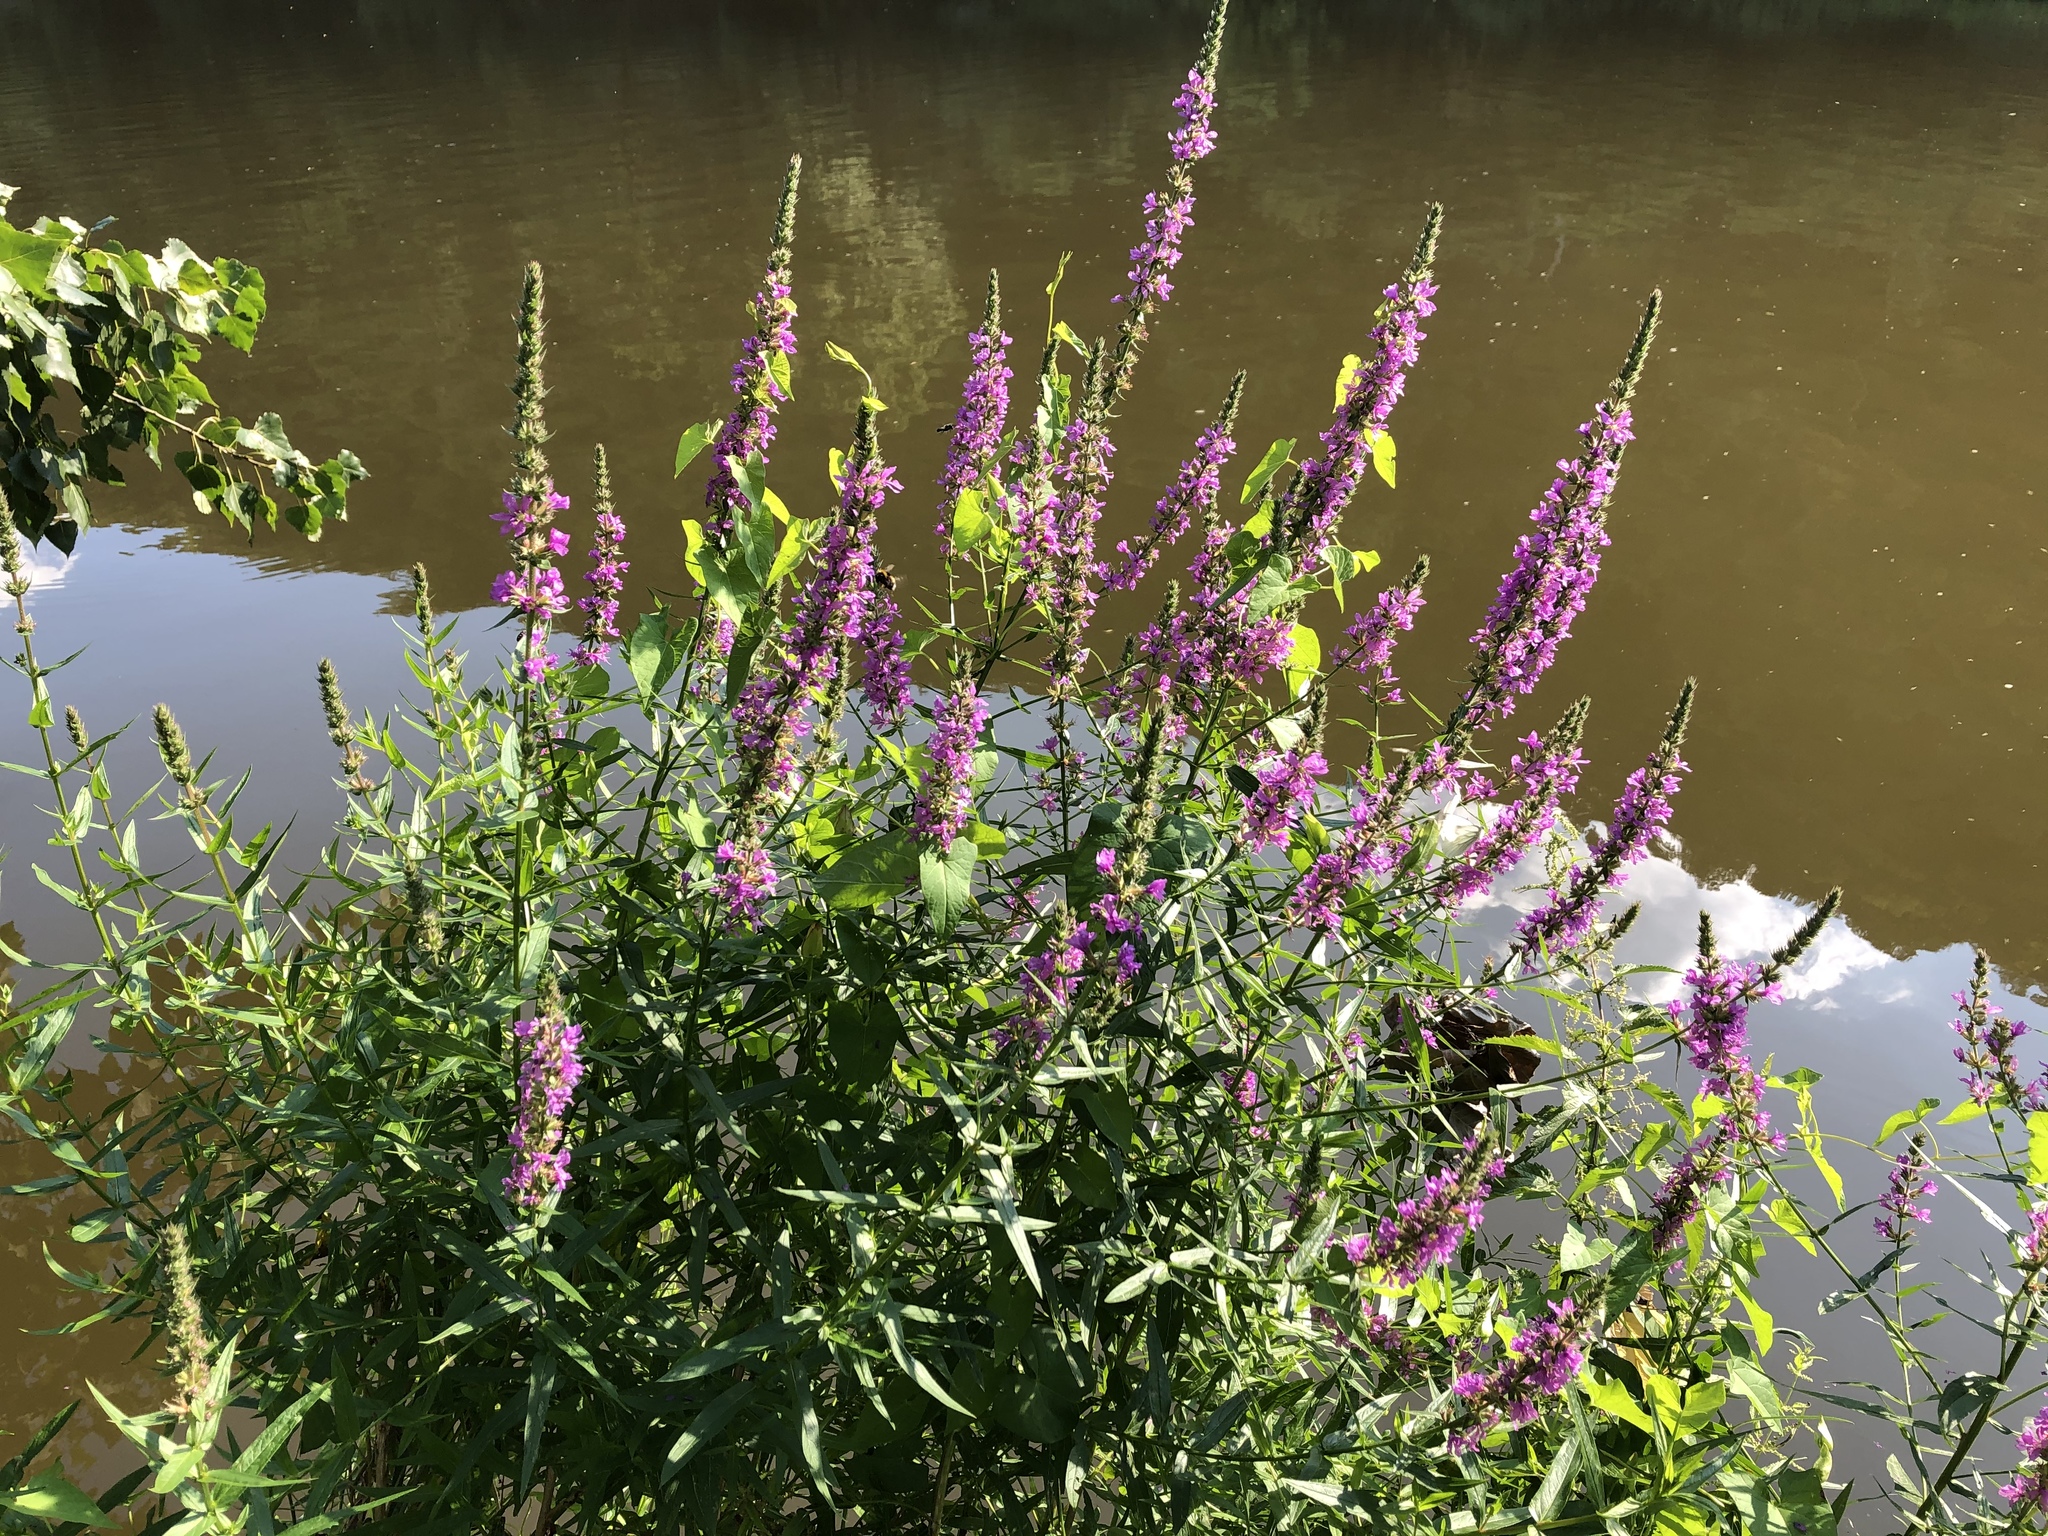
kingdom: Plantae
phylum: Tracheophyta
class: Magnoliopsida
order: Myrtales
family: Lythraceae
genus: Lythrum
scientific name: Lythrum salicaria
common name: Purple loosestrife
